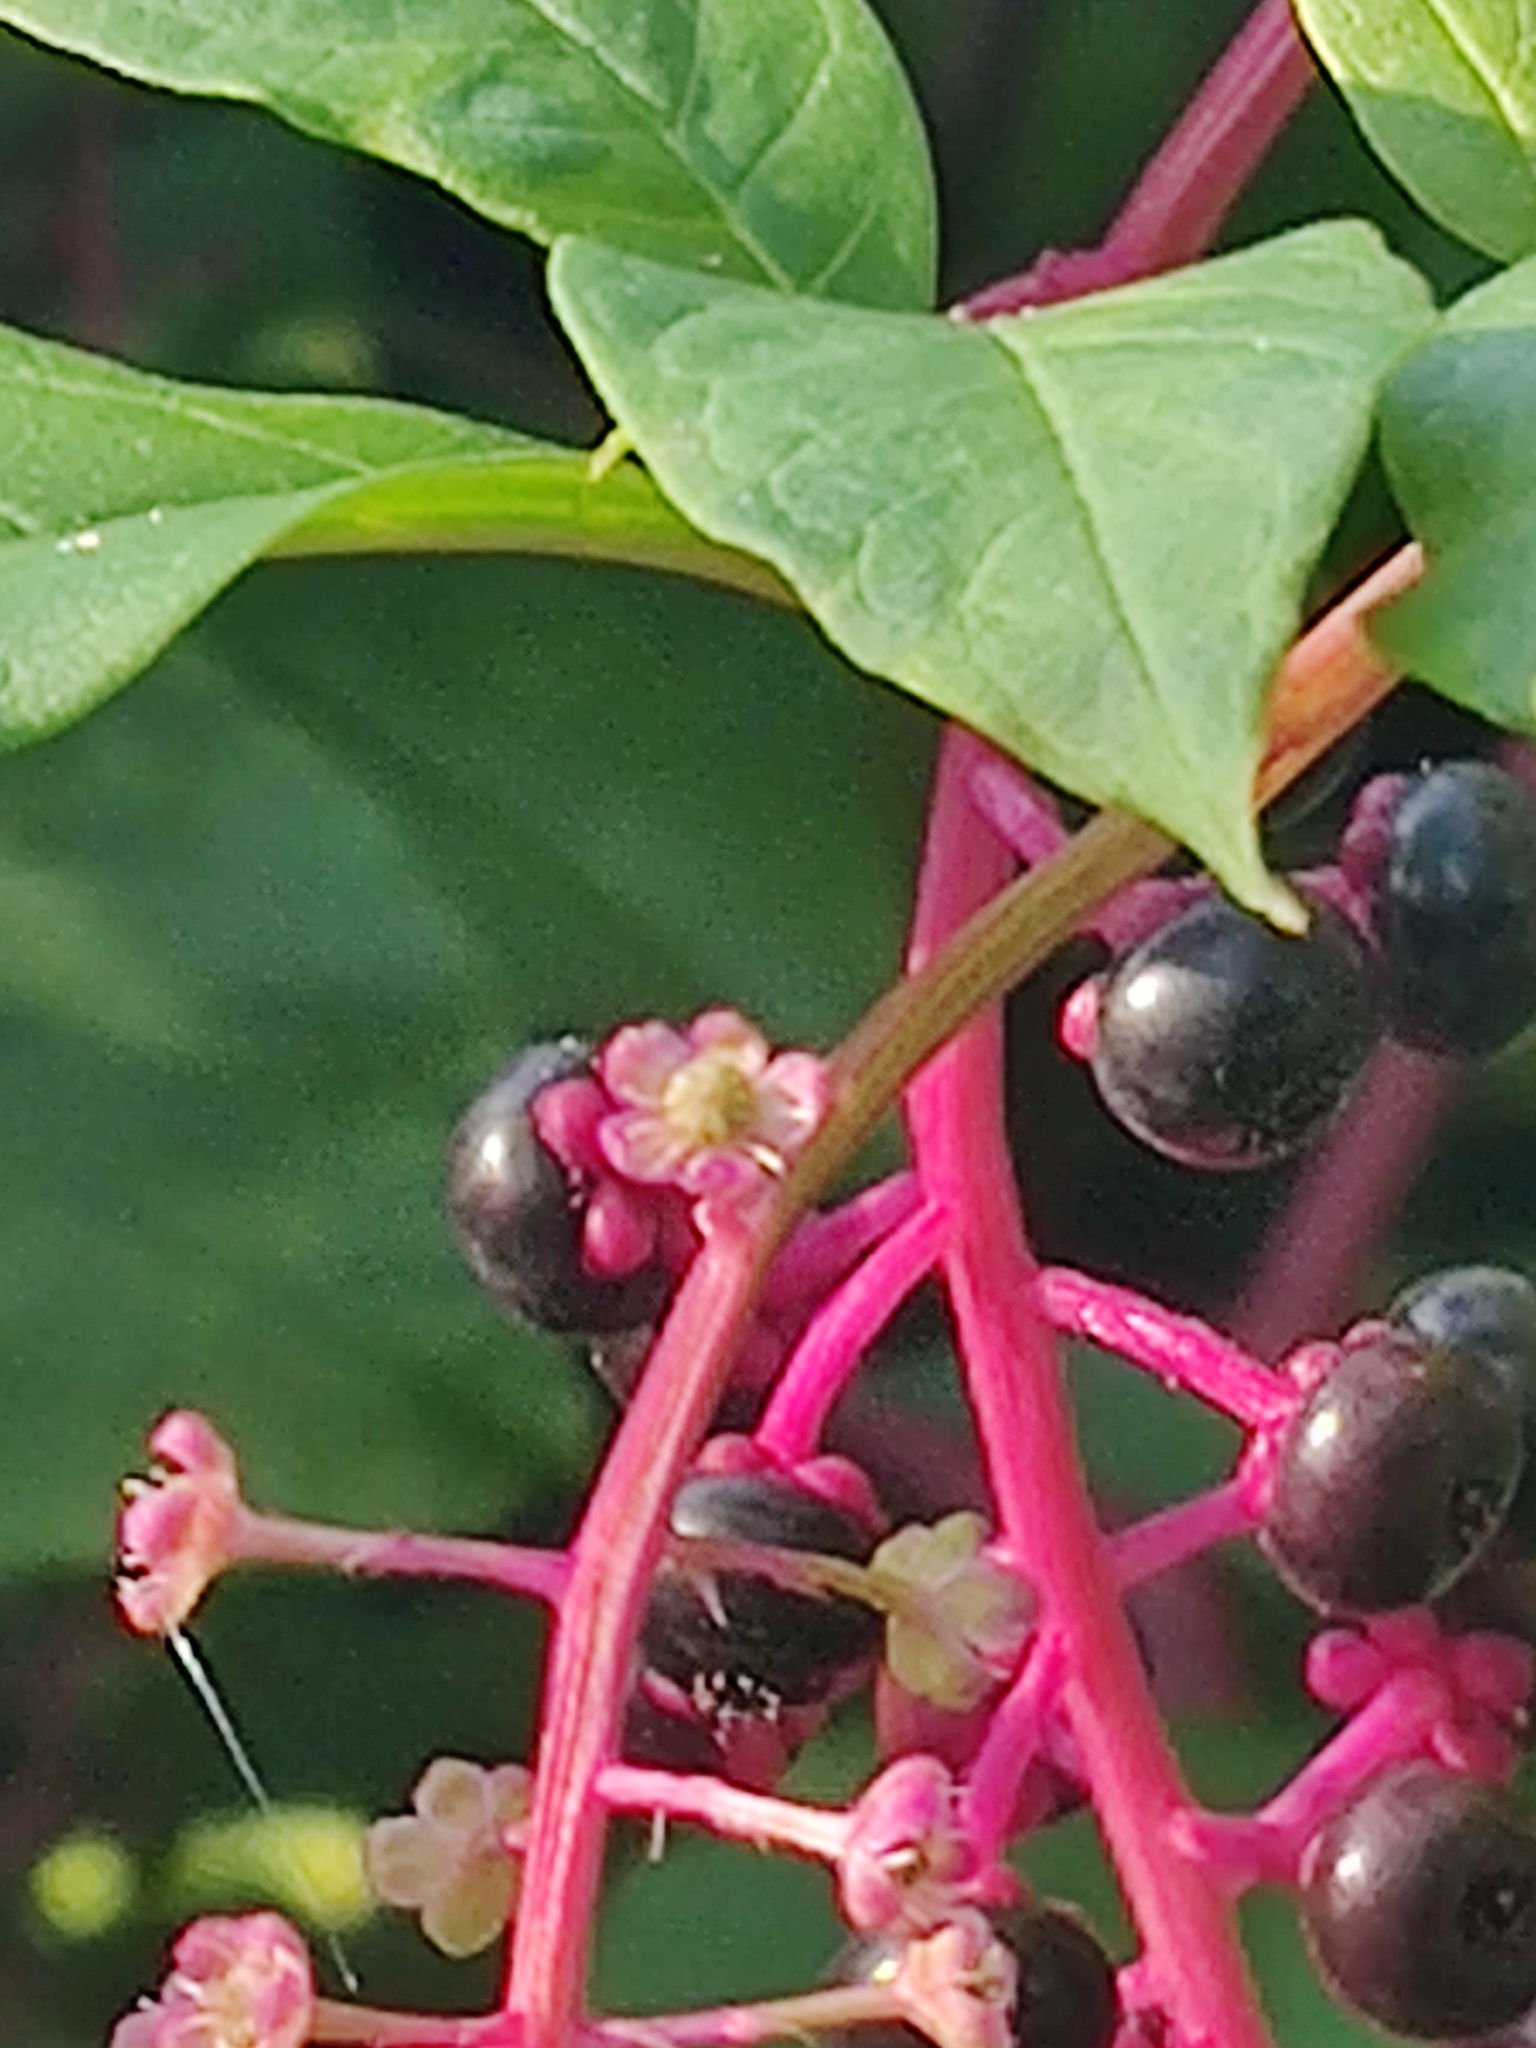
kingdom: Plantae
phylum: Tracheophyta
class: Magnoliopsida
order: Caryophyllales
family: Phytolaccaceae
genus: Phytolacca
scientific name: Phytolacca americana
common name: American pokeweed
